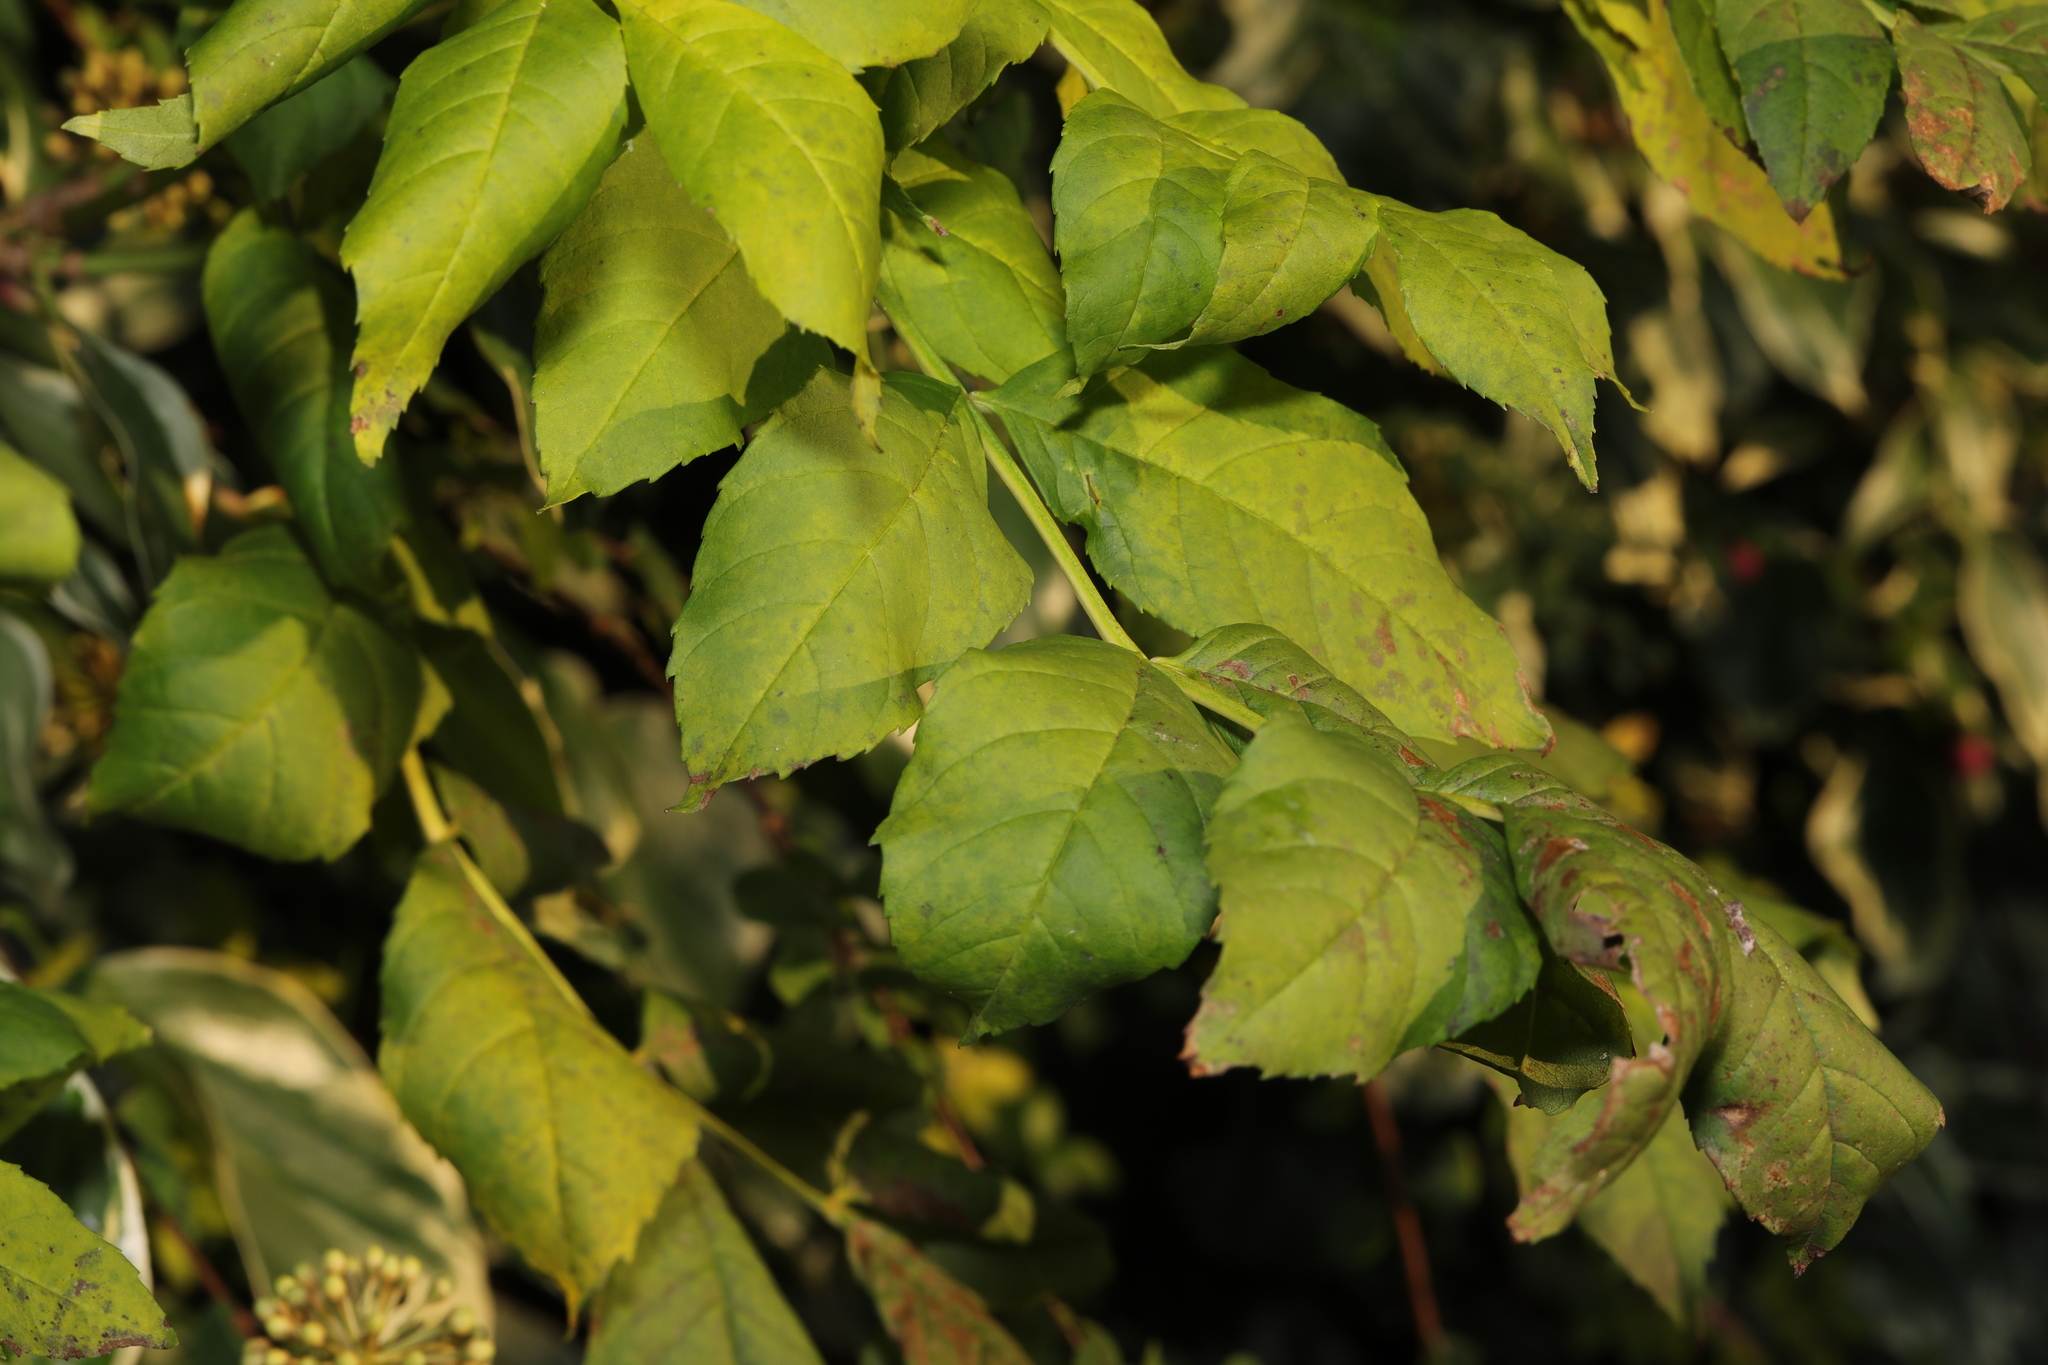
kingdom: Plantae
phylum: Tracheophyta
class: Magnoliopsida
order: Lamiales
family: Oleaceae
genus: Fraxinus
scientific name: Fraxinus excelsior
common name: European ash
